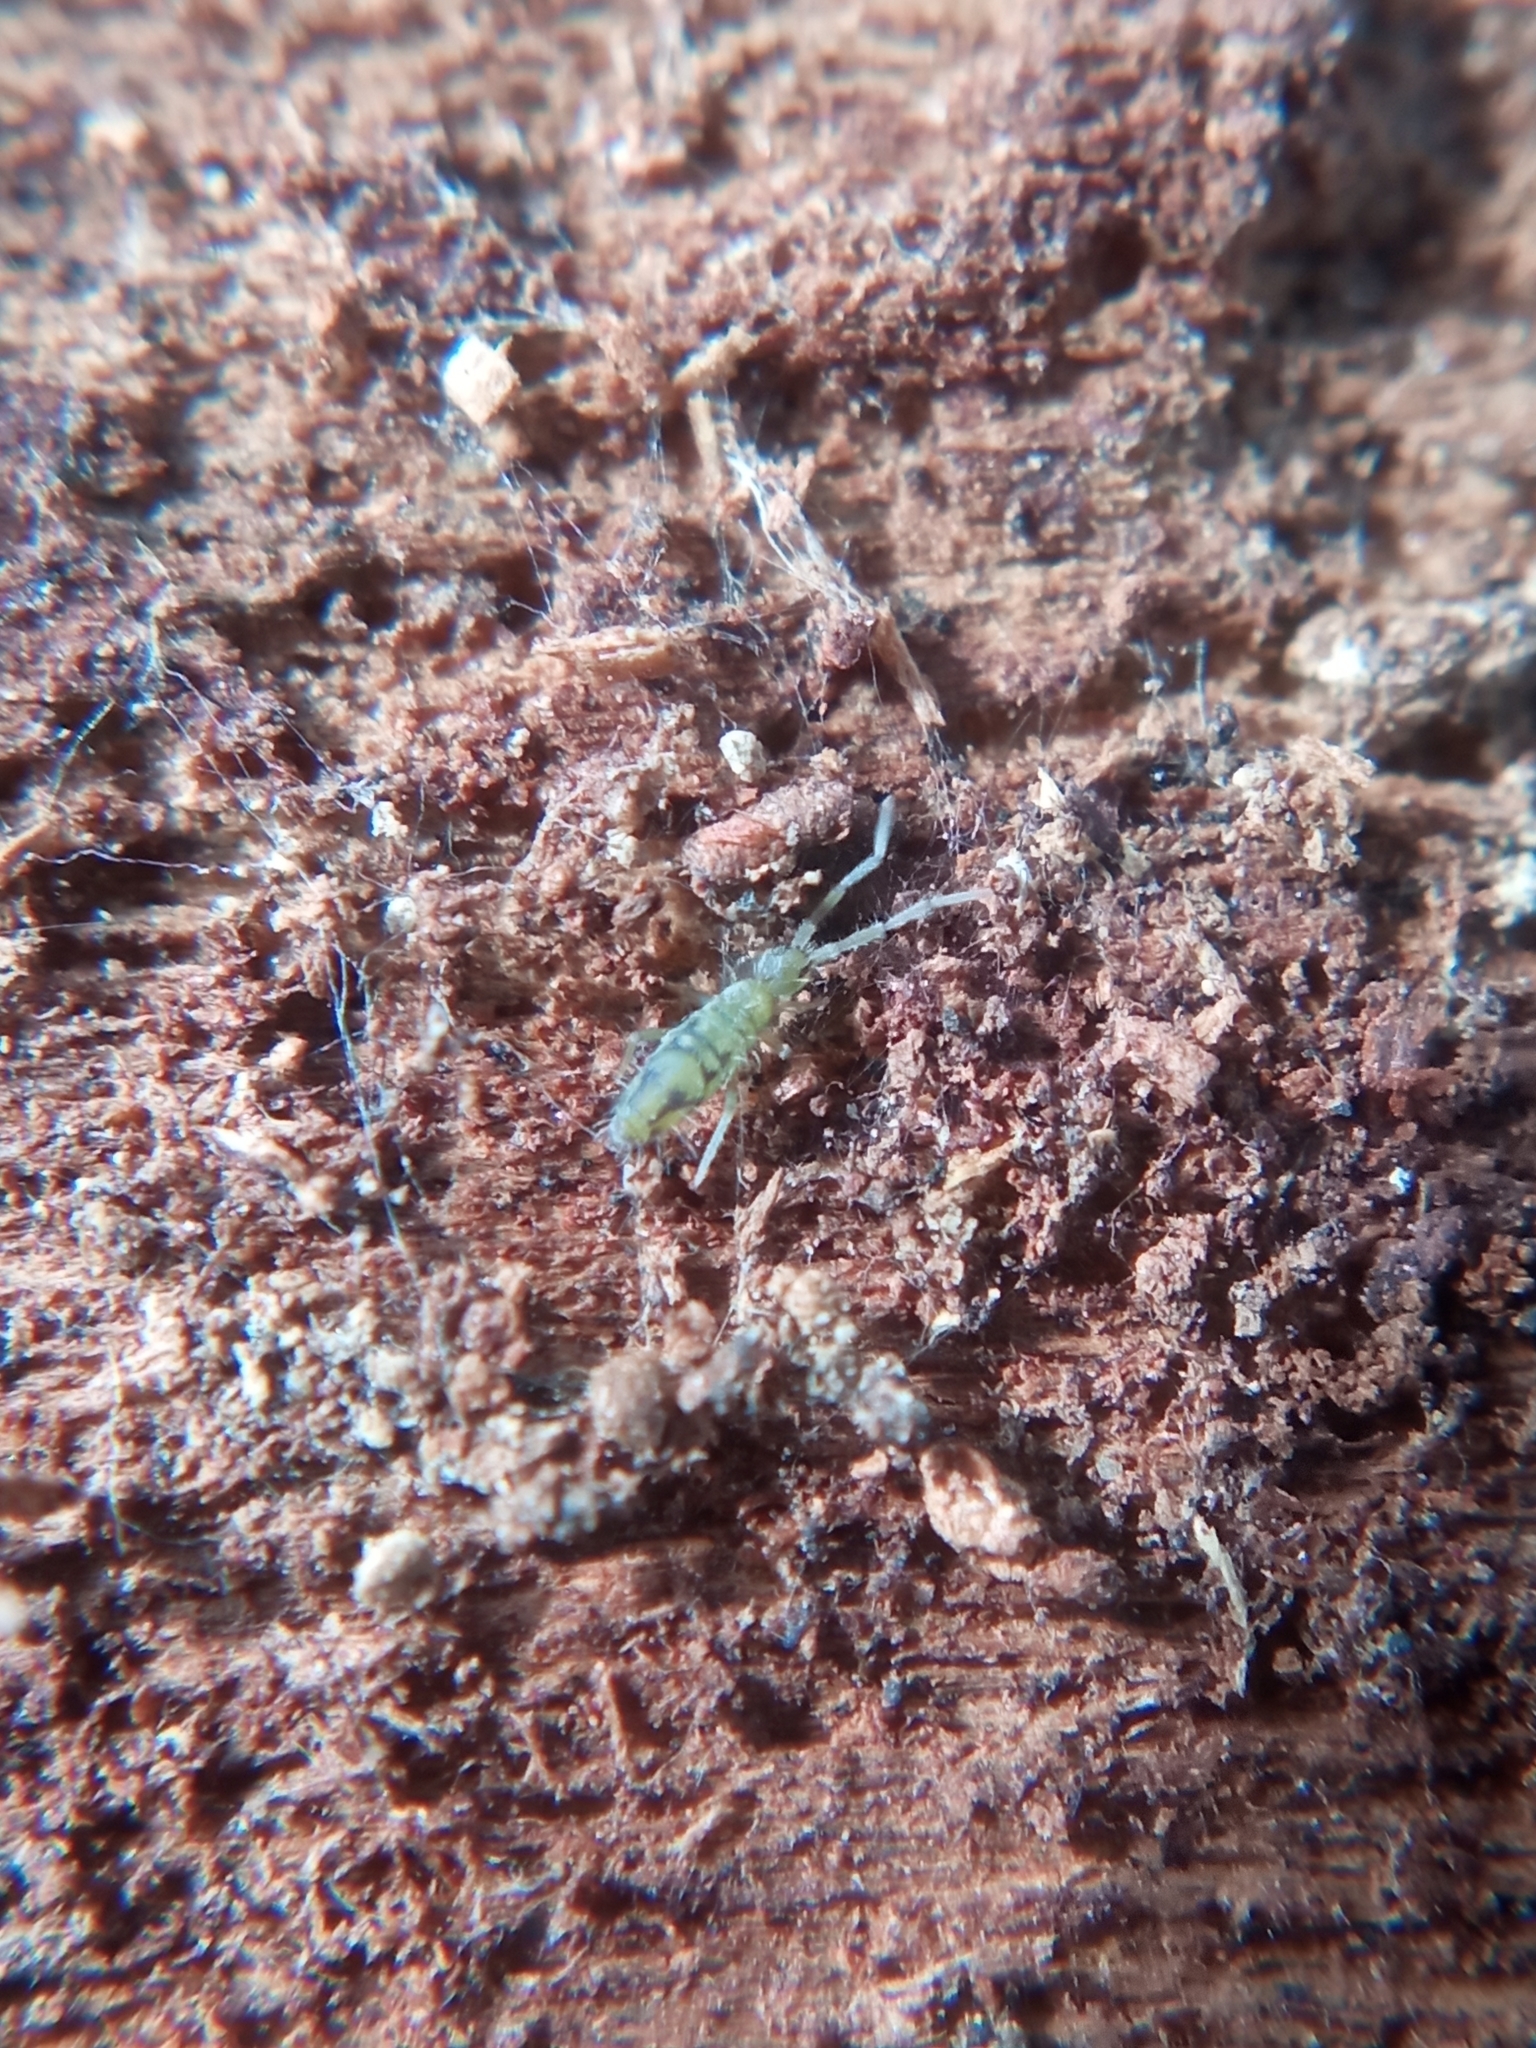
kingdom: Animalia
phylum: Arthropoda
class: Collembola
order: Entomobryomorpha
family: Entomobryidae
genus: Entomobrya
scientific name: Entomobrya nivalis
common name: Cosmopolitan springtail
